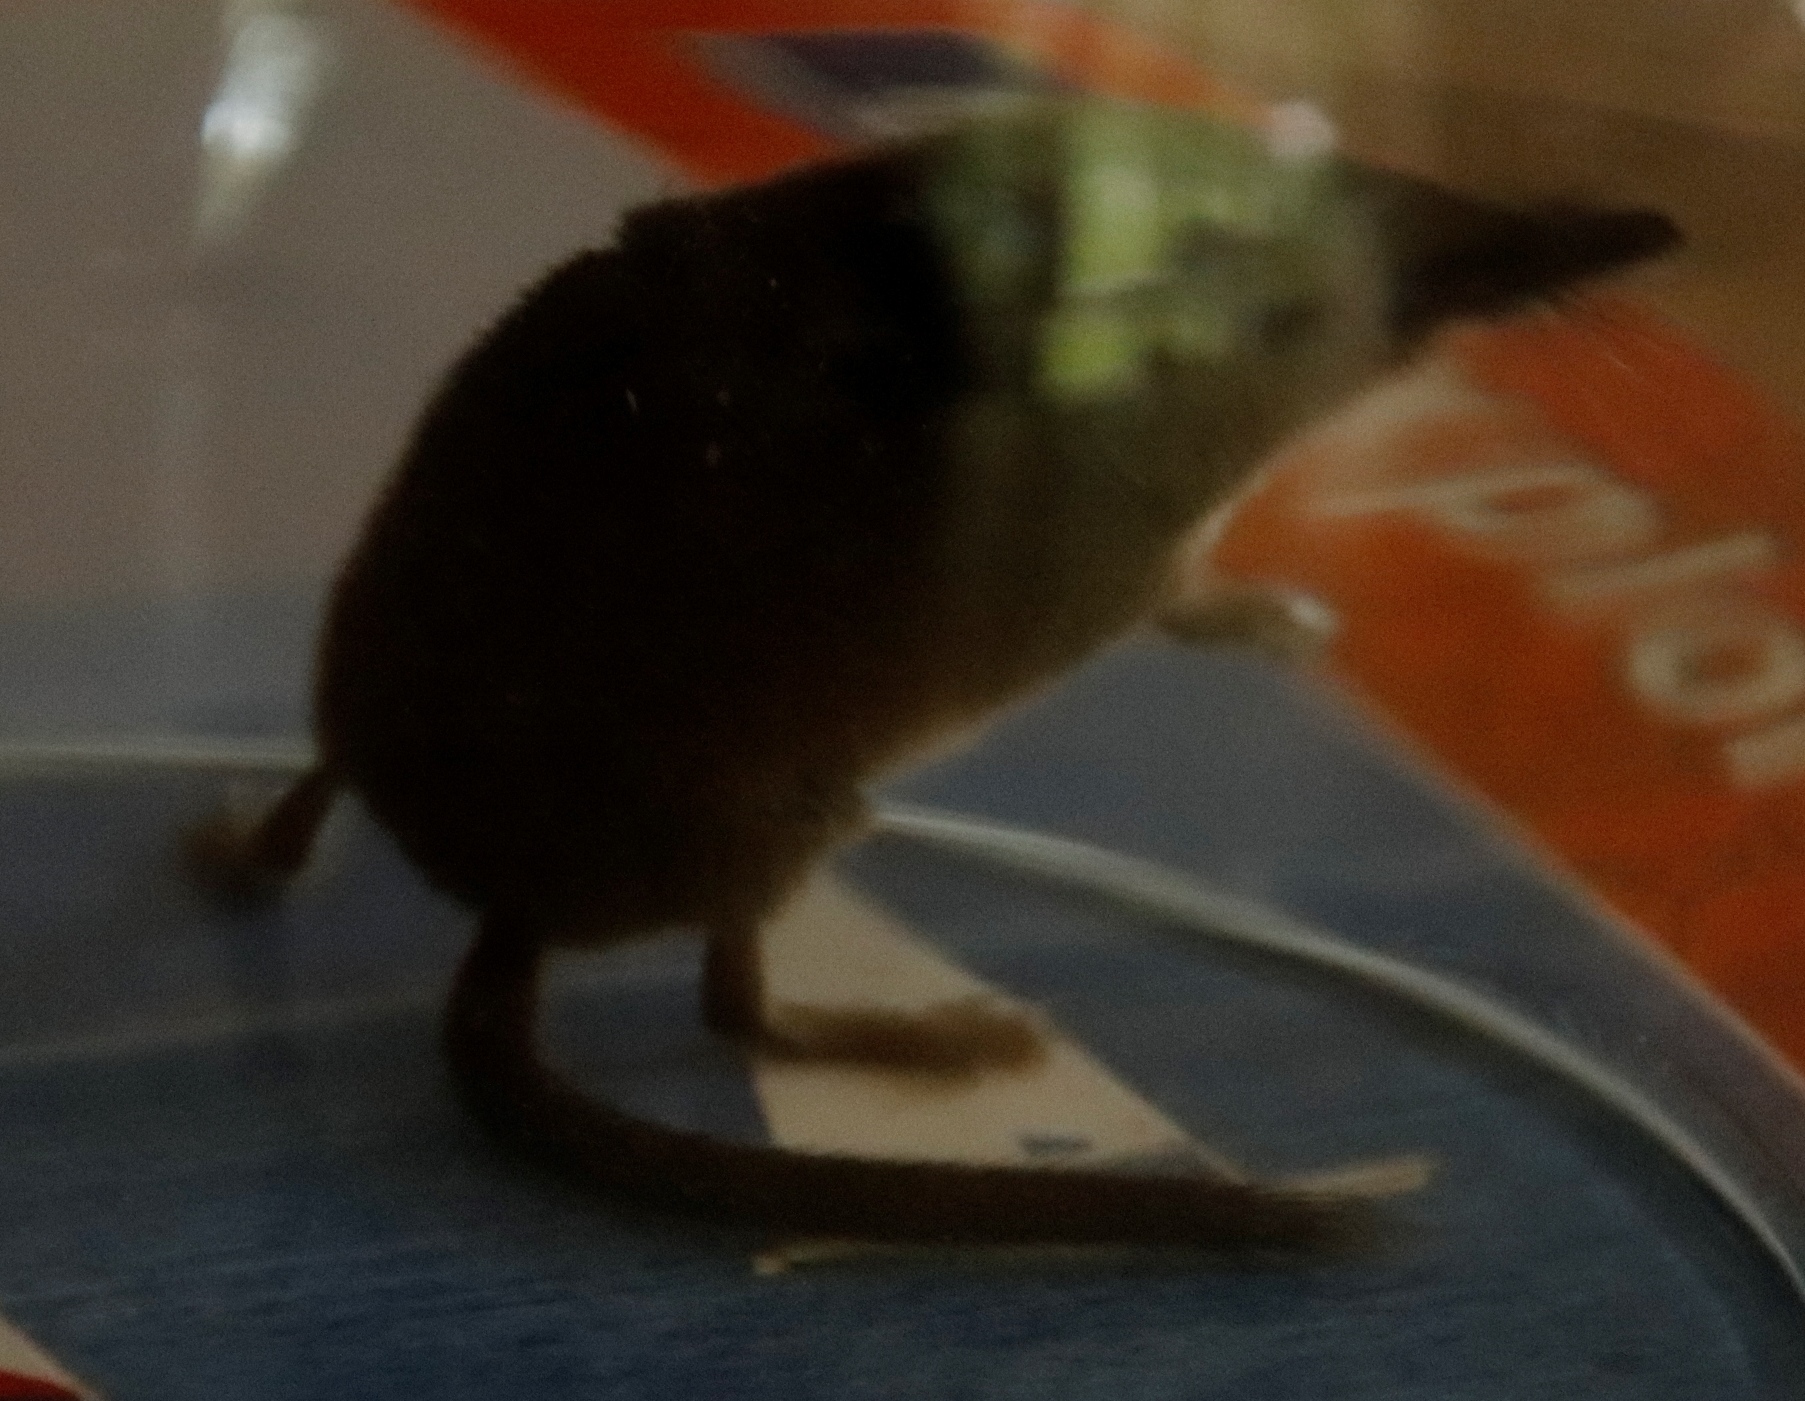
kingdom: Animalia
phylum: Chordata
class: Mammalia
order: Soricomorpha
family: Soricidae
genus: Sorex
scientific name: Sorex minutus
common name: Eurasian pygmy shrew
